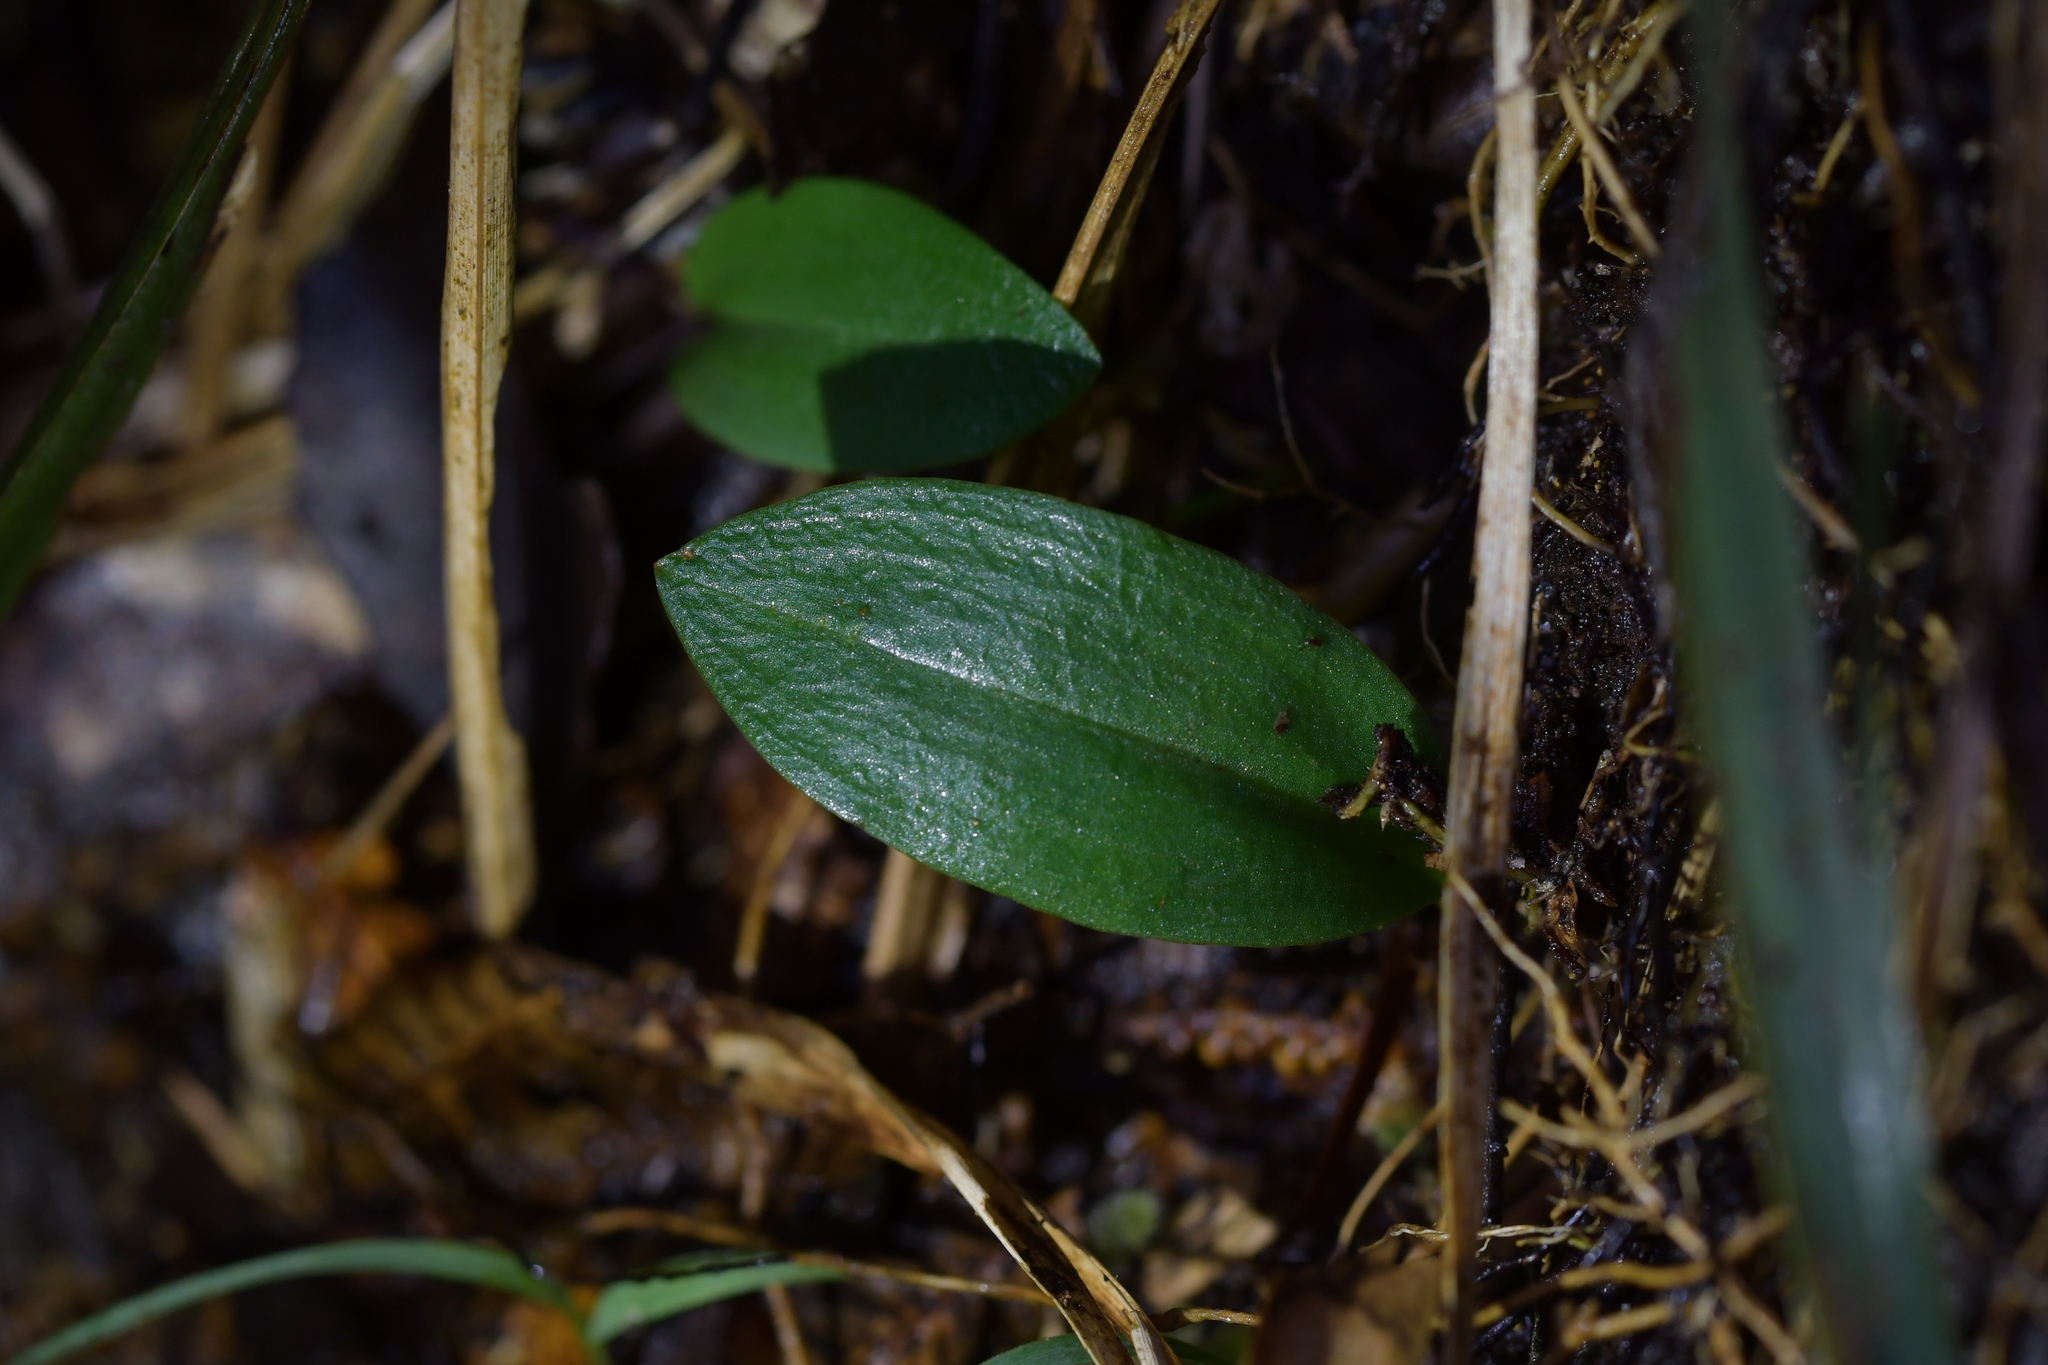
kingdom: Plantae
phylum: Tracheophyta
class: Liliopsida
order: Asparagales
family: Orchidaceae
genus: Chiloglottis
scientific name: Chiloglottis cornuta
